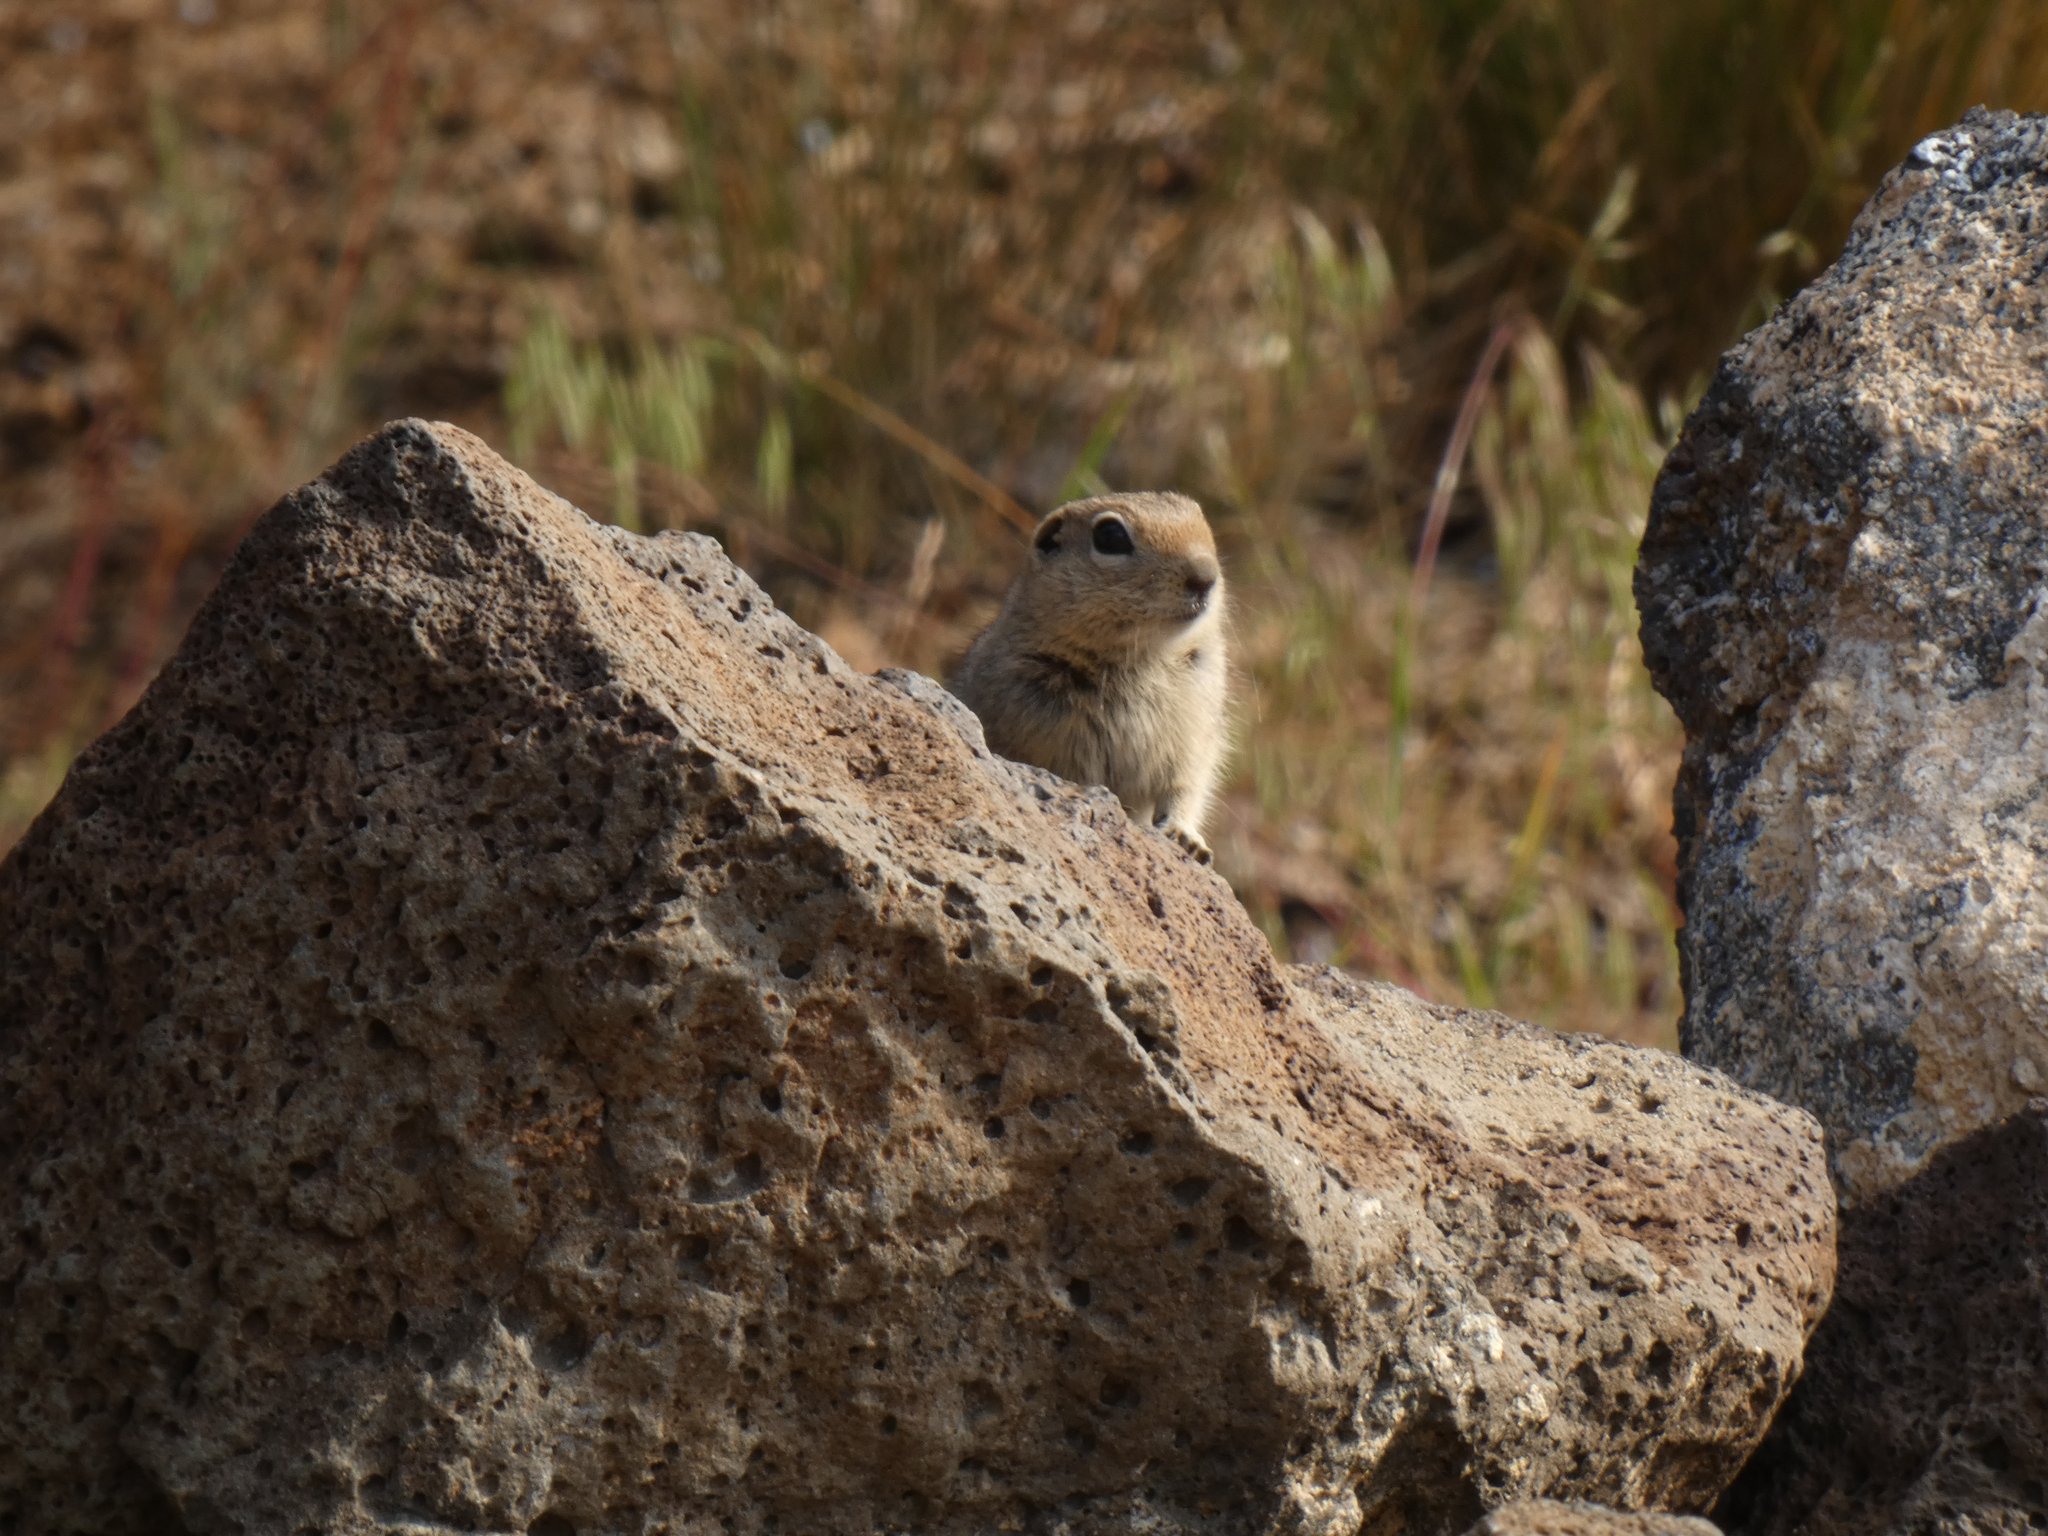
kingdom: Animalia
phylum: Chordata
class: Mammalia
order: Rodentia
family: Sciuridae
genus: Urocitellus
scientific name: Urocitellus beldingi
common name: Belding's ground squirrel
